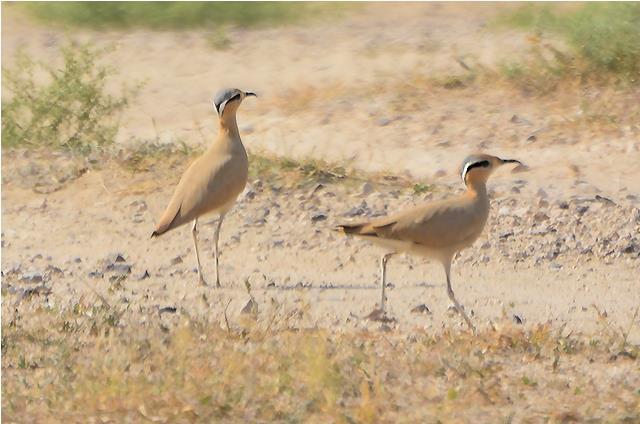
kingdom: Animalia
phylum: Chordata
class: Aves
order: Charadriiformes
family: Glareolidae
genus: Cursorius
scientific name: Cursorius cursor
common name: Cream-colored courser
